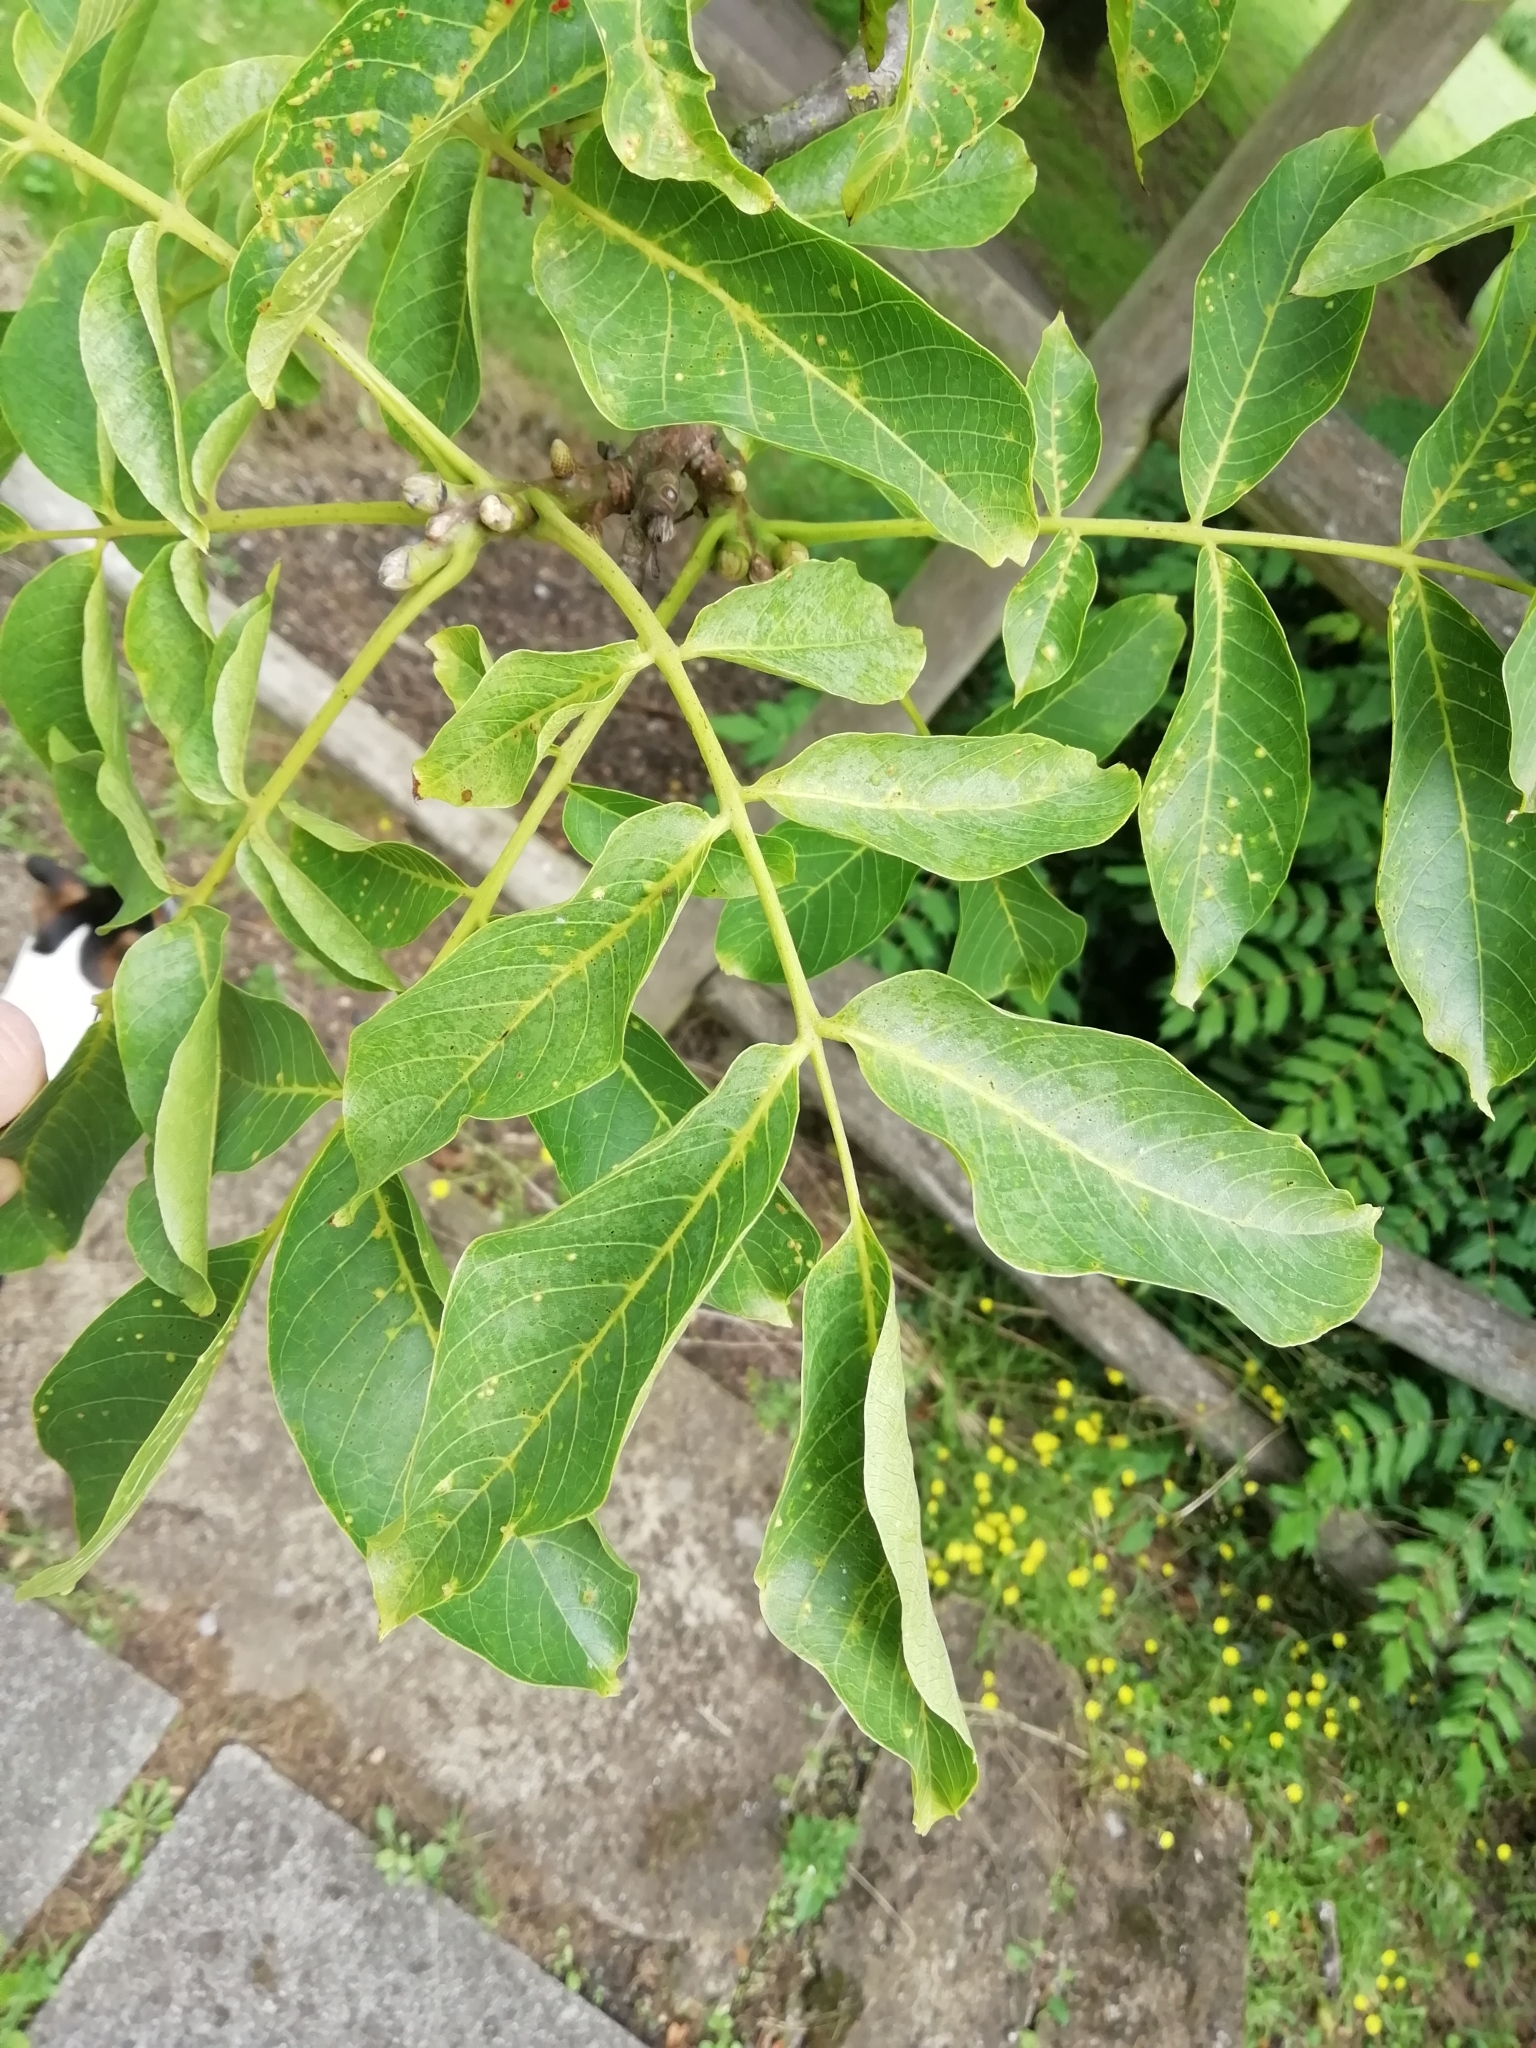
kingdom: Plantae
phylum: Tracheophyta
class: Magnoliopsida
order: Fagales
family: Juglandaceae
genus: Juglans
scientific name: Juglans regia
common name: Walnut
